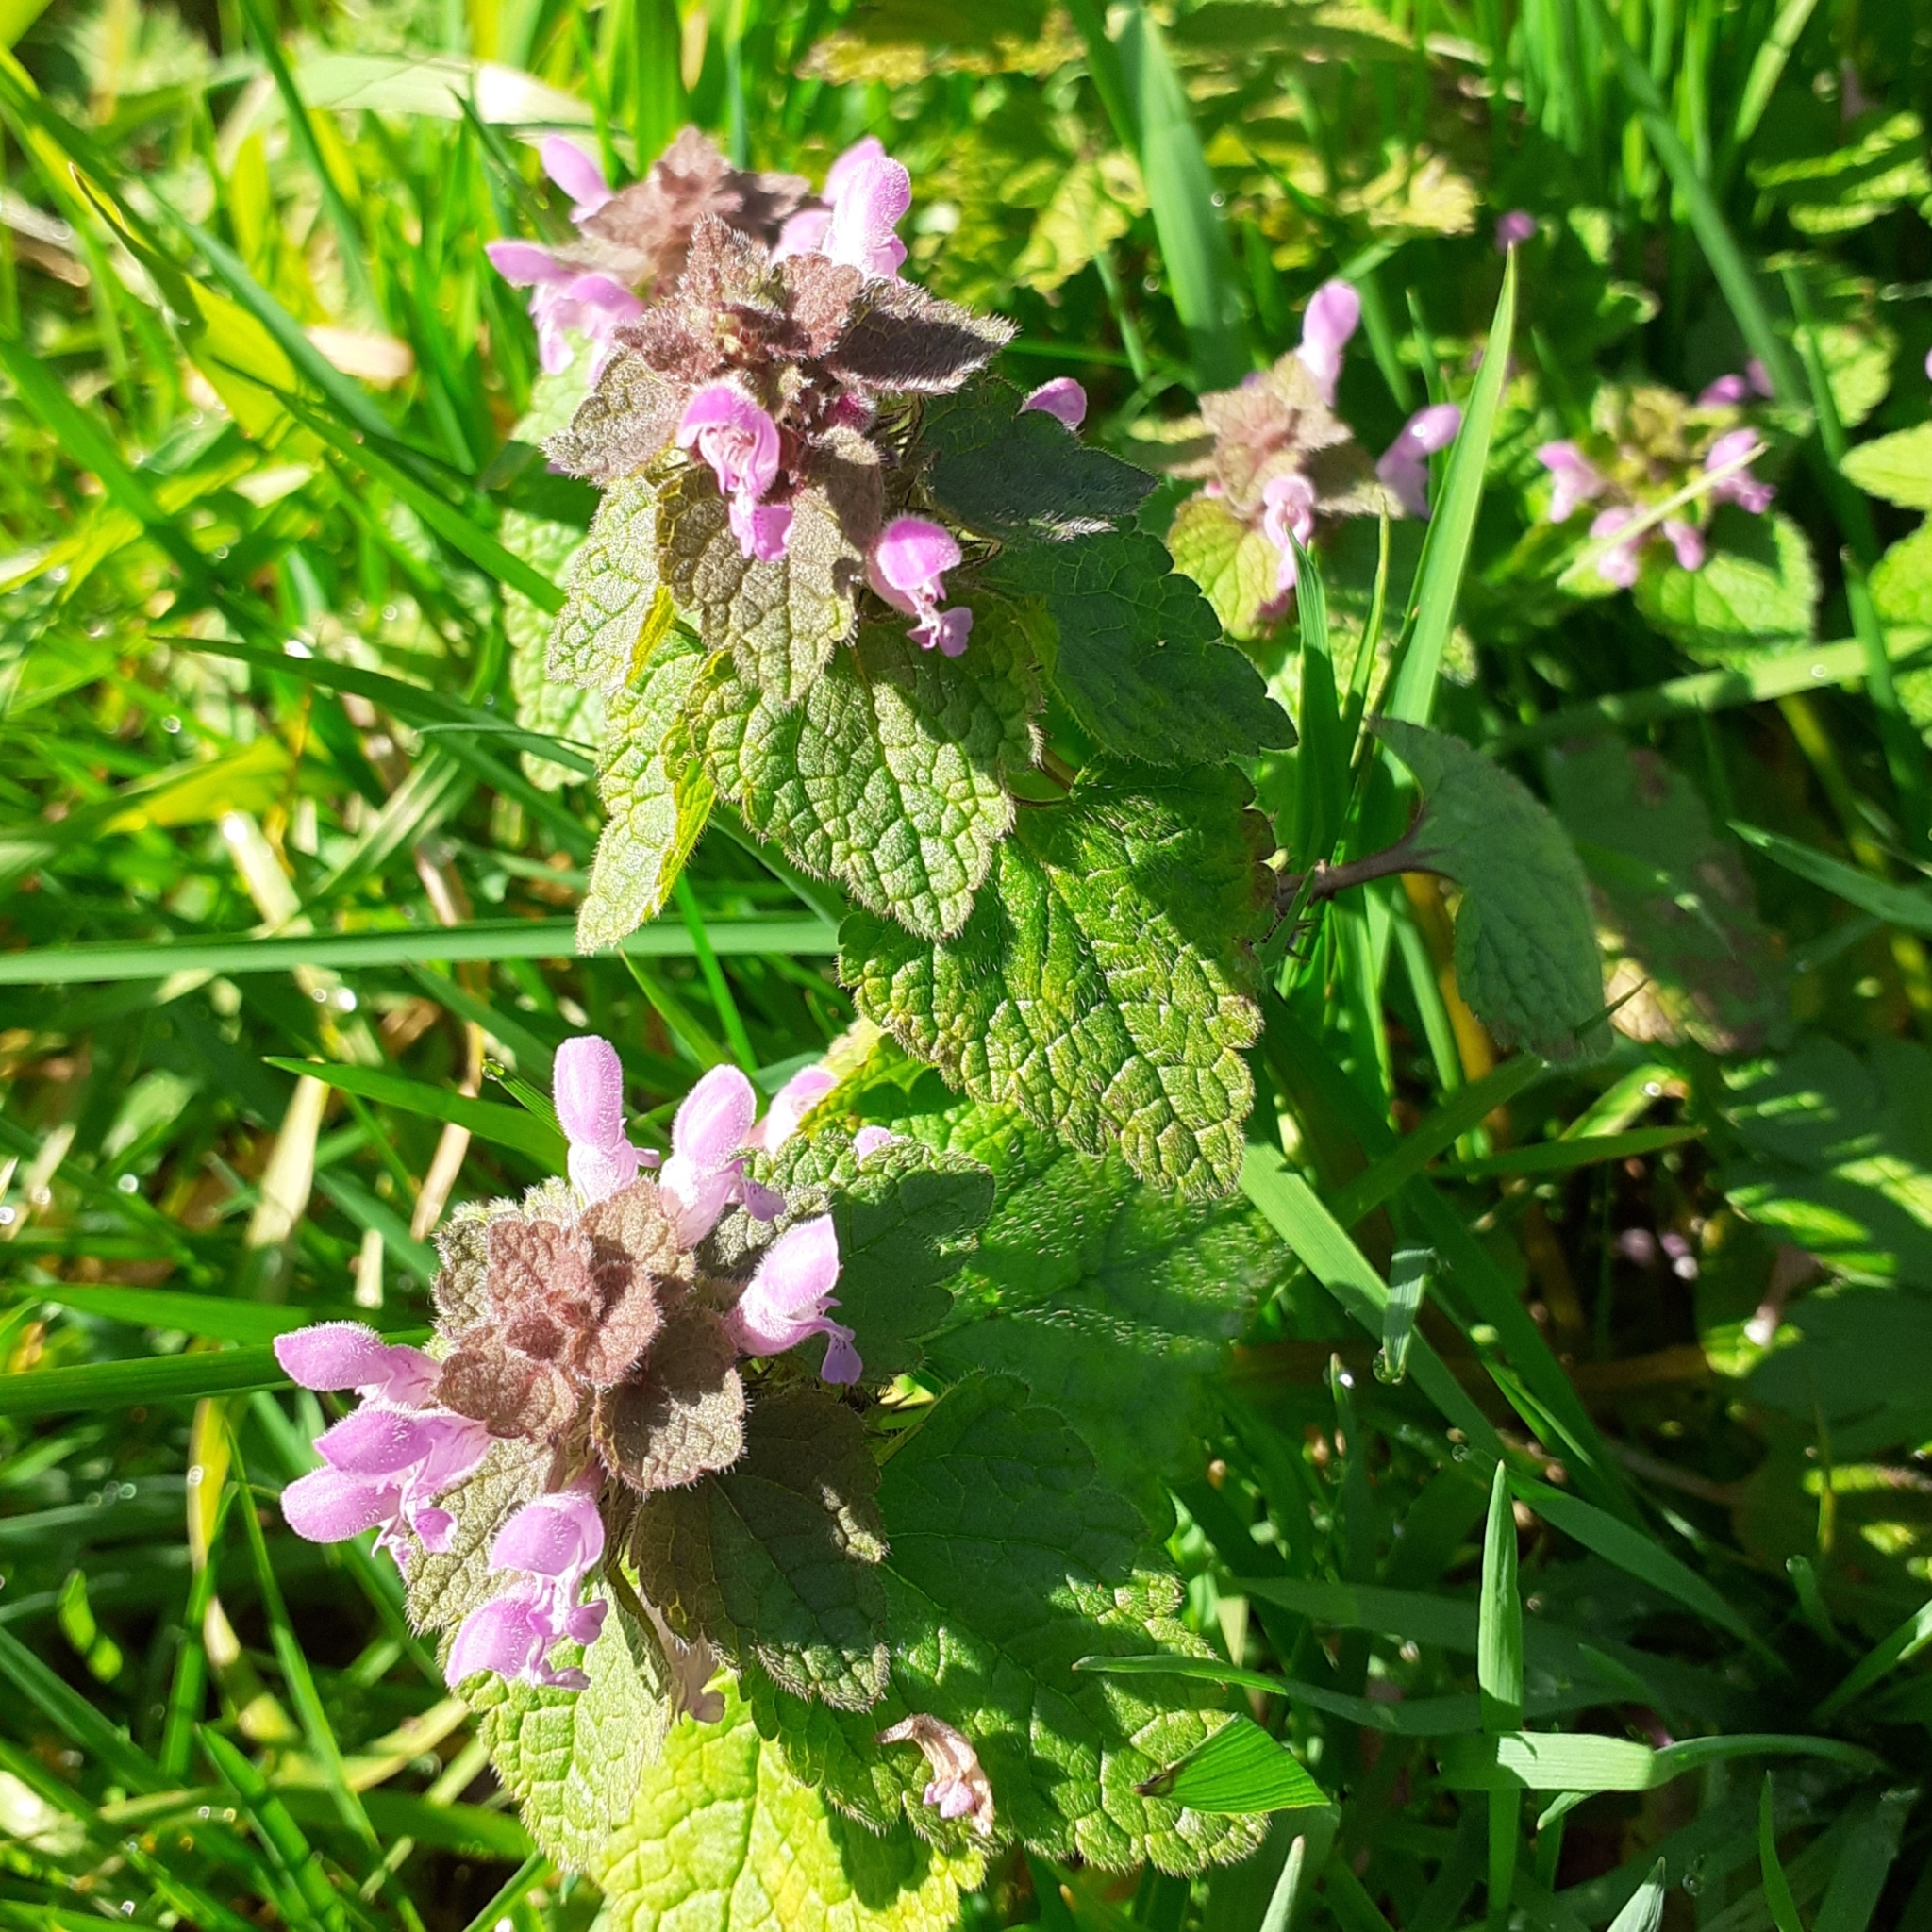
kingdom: Plantae
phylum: Tracheophyta
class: Magnoliopsida
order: Lamiales
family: Lamiaceae
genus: Lamium
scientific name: Lamium purpureum
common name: Red dead-nettle
